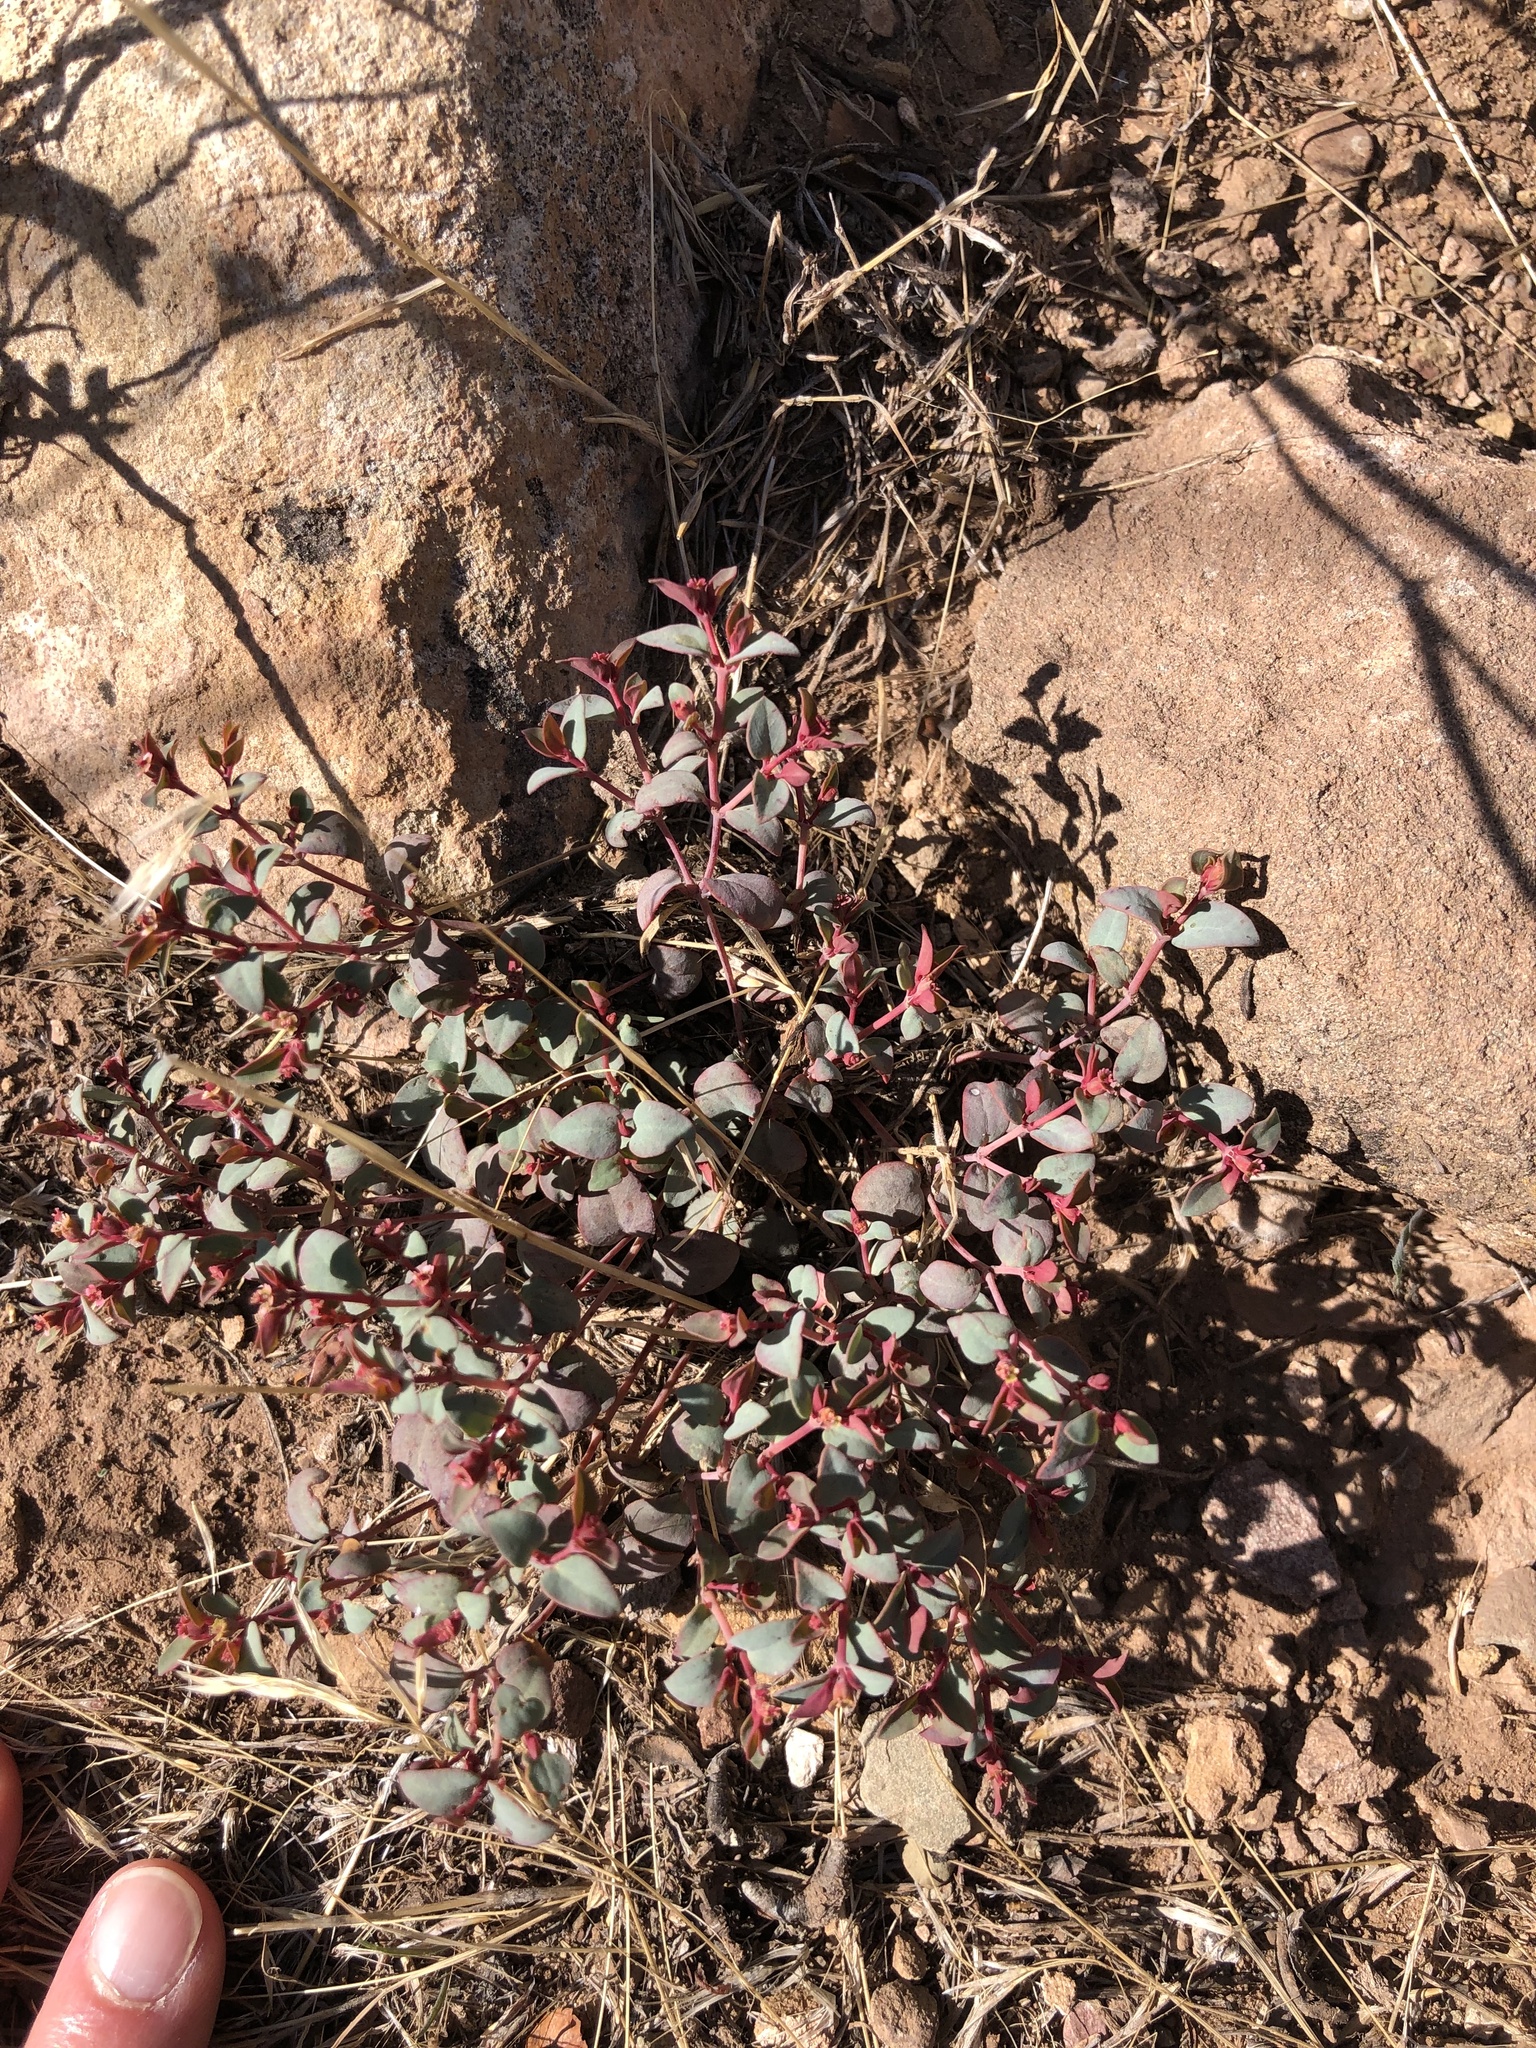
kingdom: Plantae
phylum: Tracheophyta
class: Magnoliopsida
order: Malpighiales
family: Euphorbiaceae
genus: Euphorbia
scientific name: Euphorbia fendleri
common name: Fendler's euphorbia
